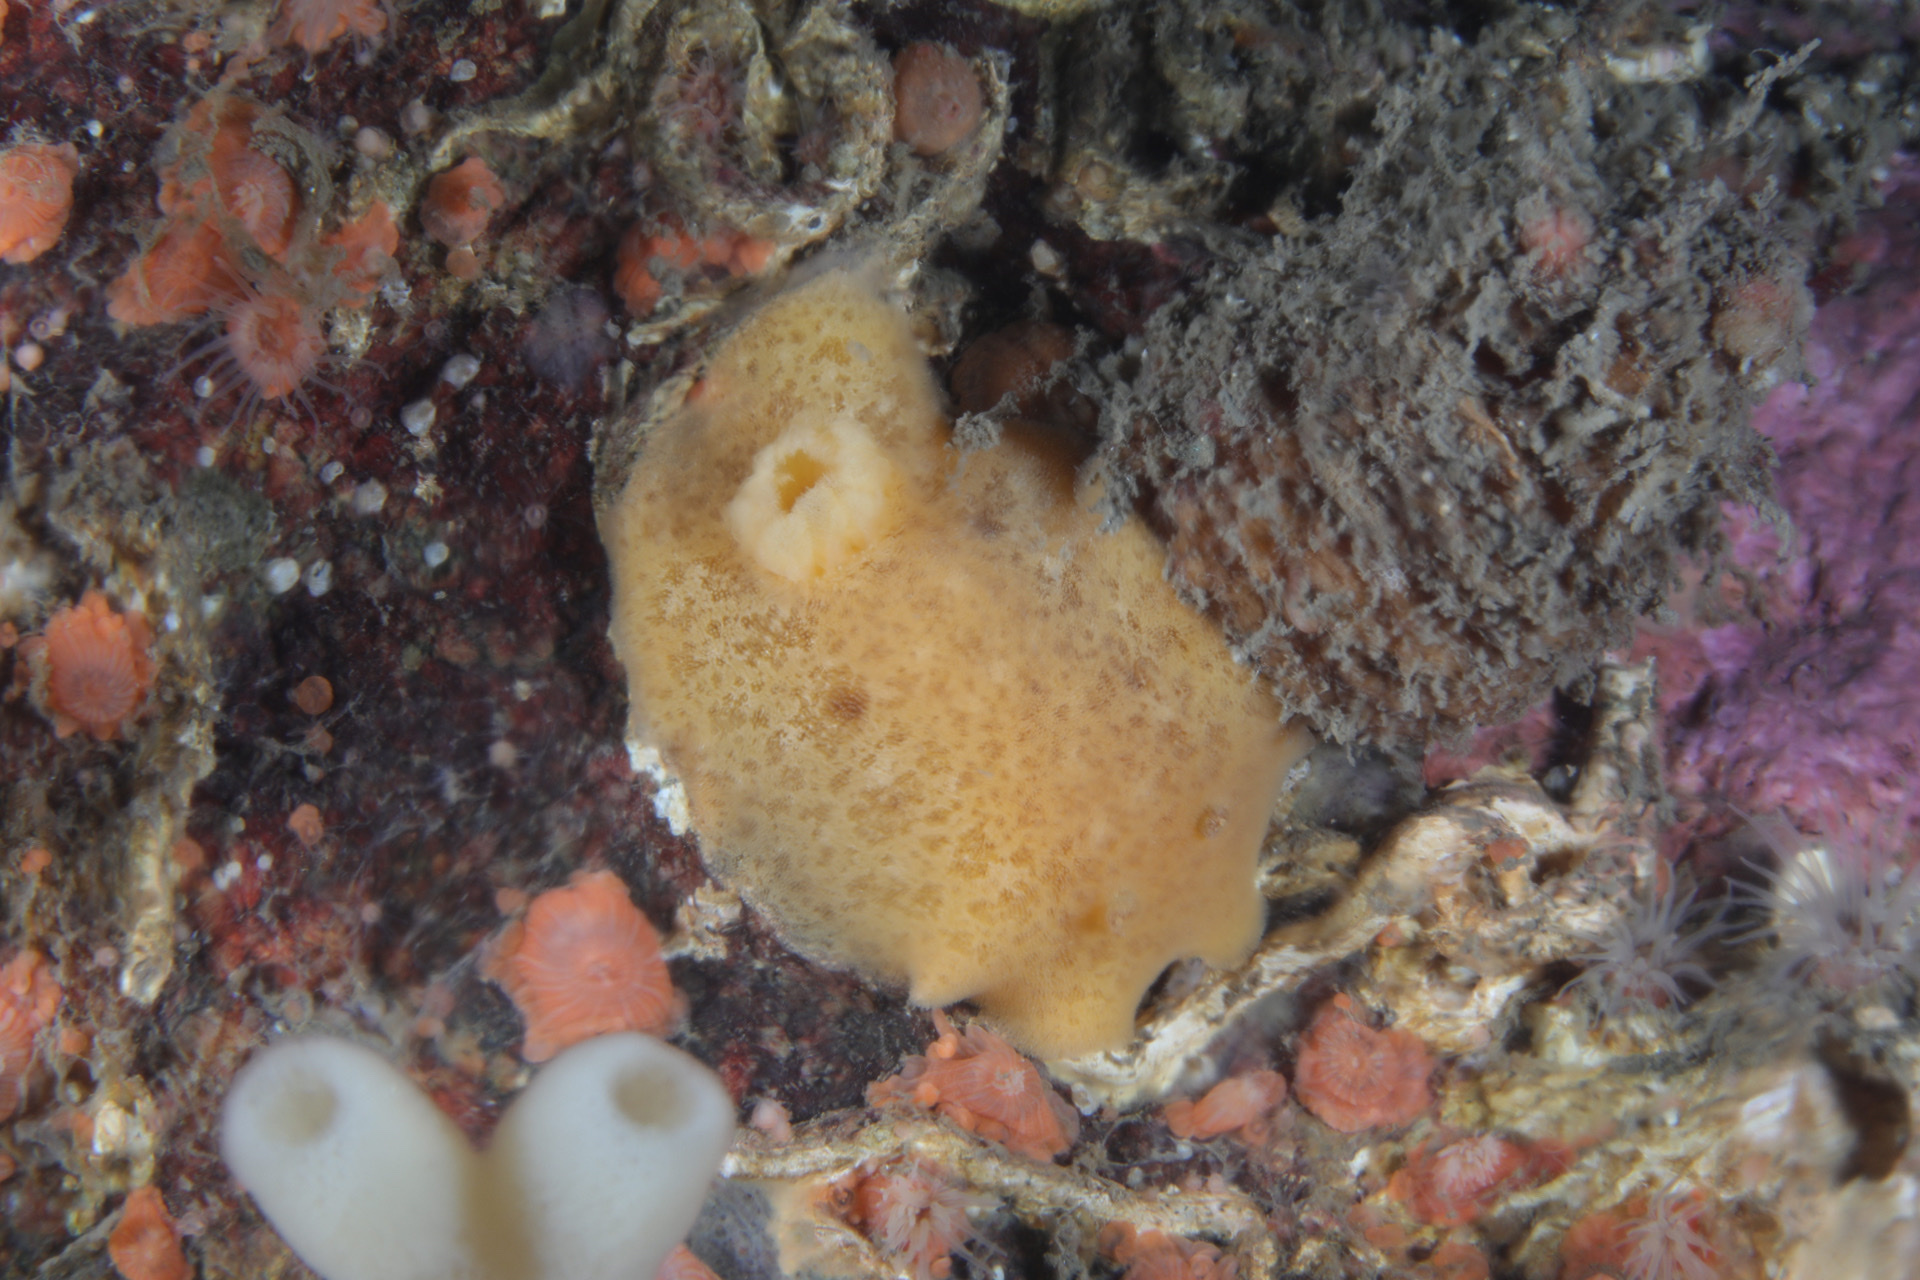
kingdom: Animalia
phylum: Mollusca
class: Gastropoda
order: Nudibranchia
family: Discodorididae
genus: Jorunna
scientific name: Jorunna tomentosa
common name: Grey sea slug
